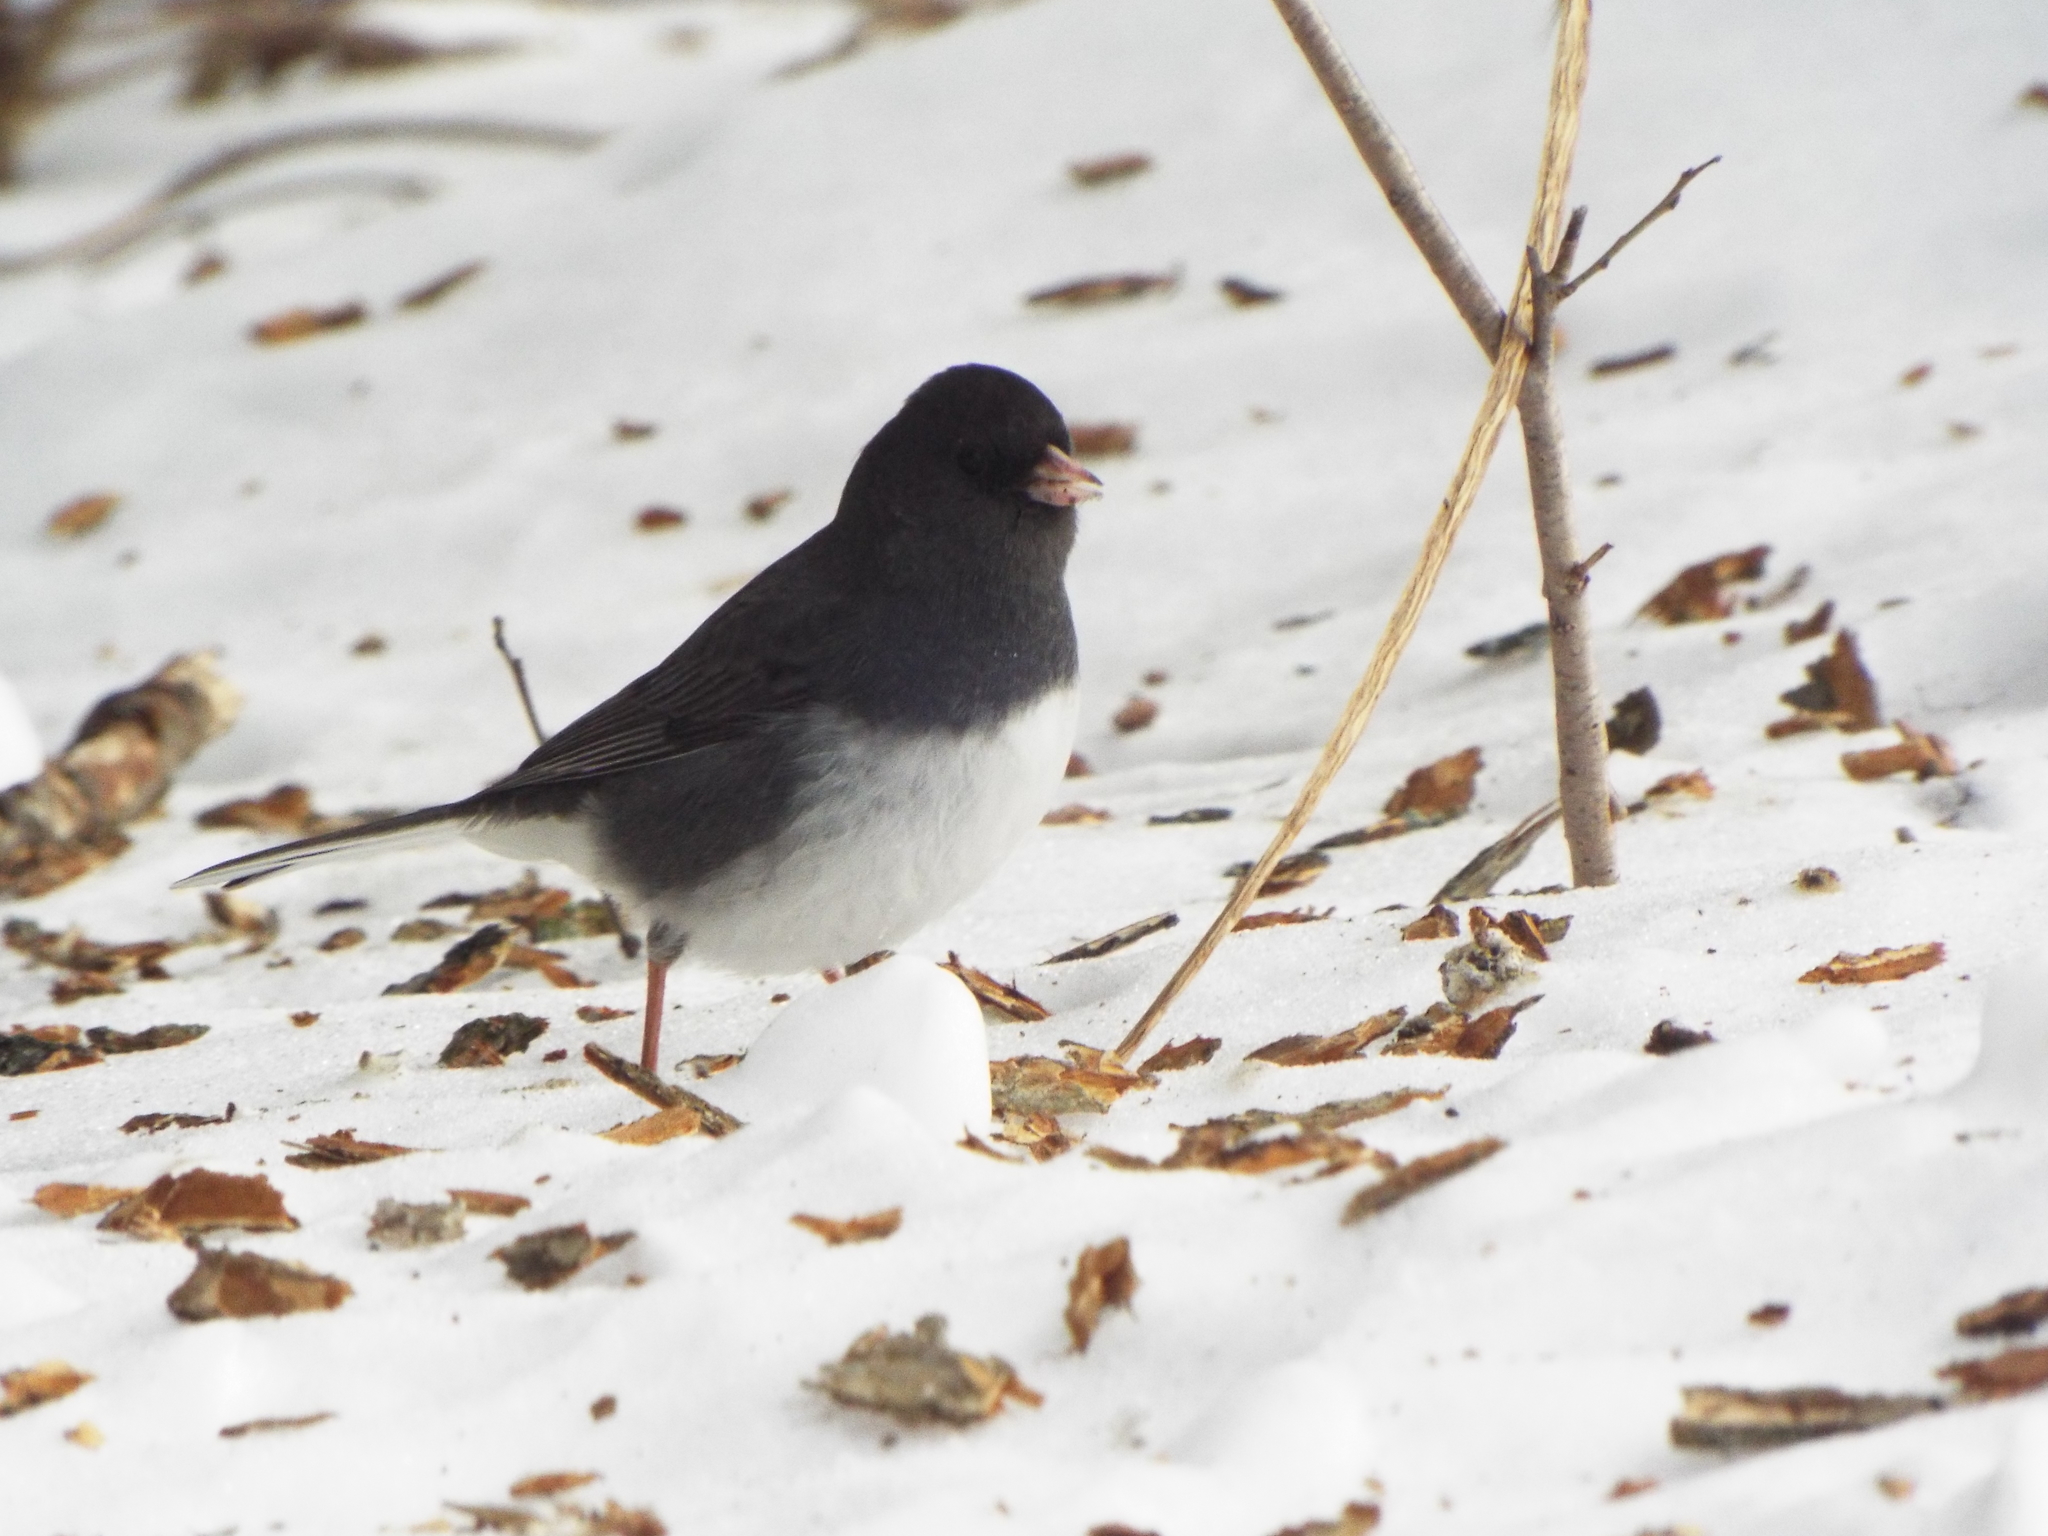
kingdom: Animalia
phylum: Chordata
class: Aves
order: Passeriformes
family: Passerellidae
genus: Junco
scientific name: Junco hyemalis
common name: Dark-eyed junco
